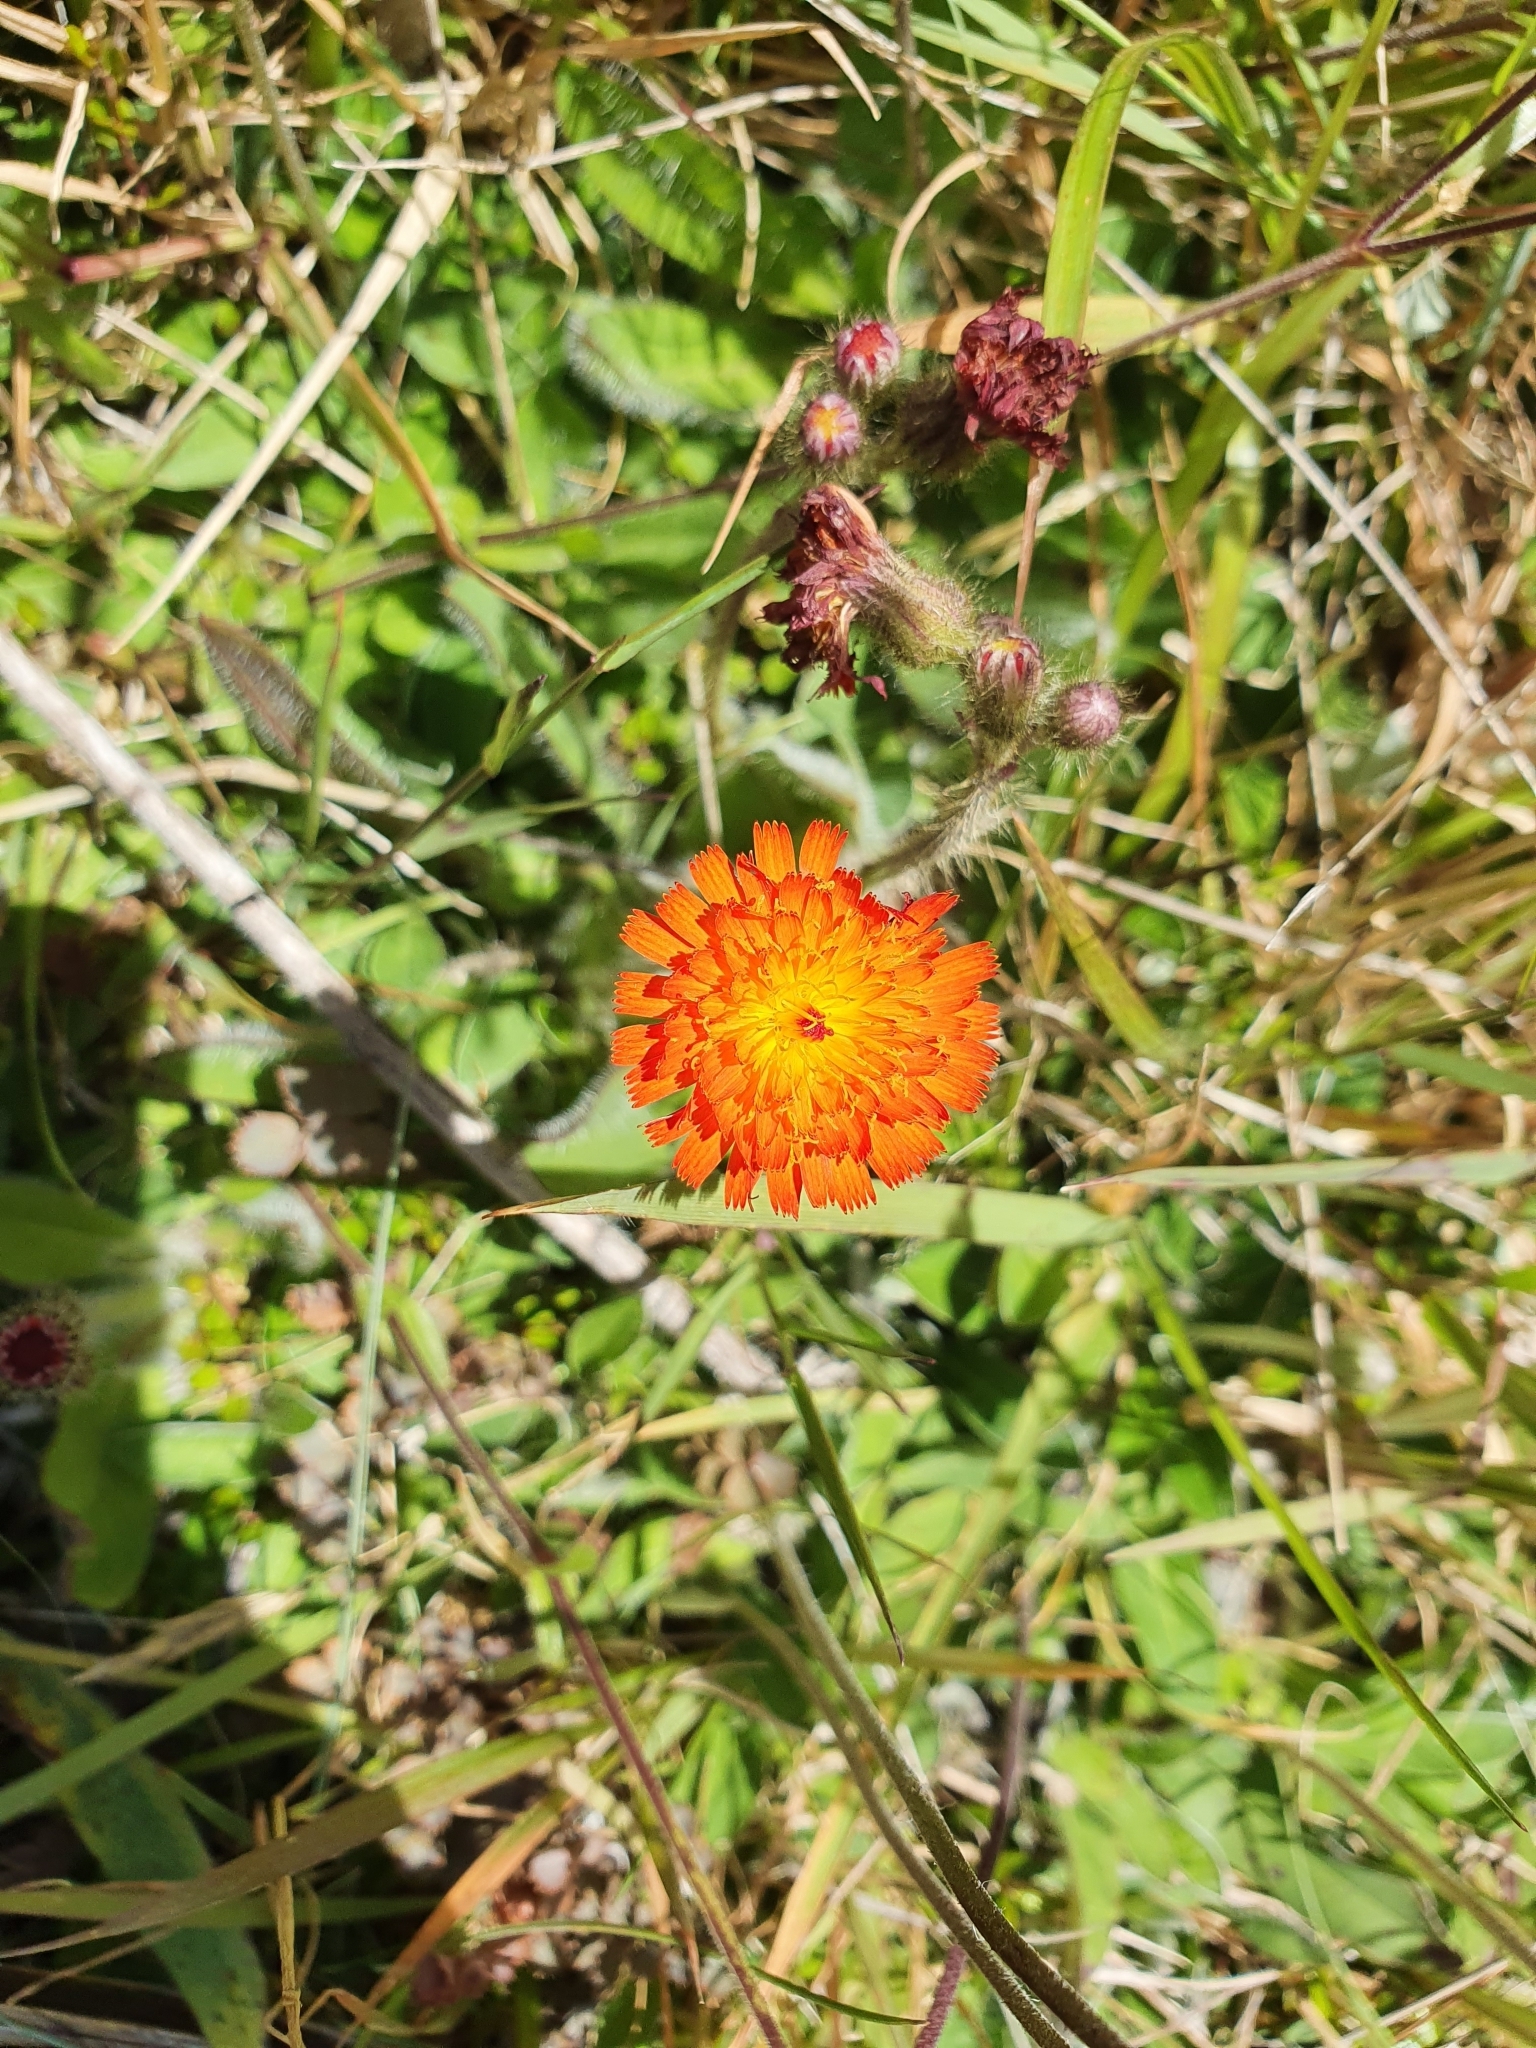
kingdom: Plantae
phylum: Tracheophyta
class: Magnoliopsida
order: Asterales
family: Asteraceae
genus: Pilosella
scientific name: Pilosella aurantiaca
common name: Fox-and-cubs
